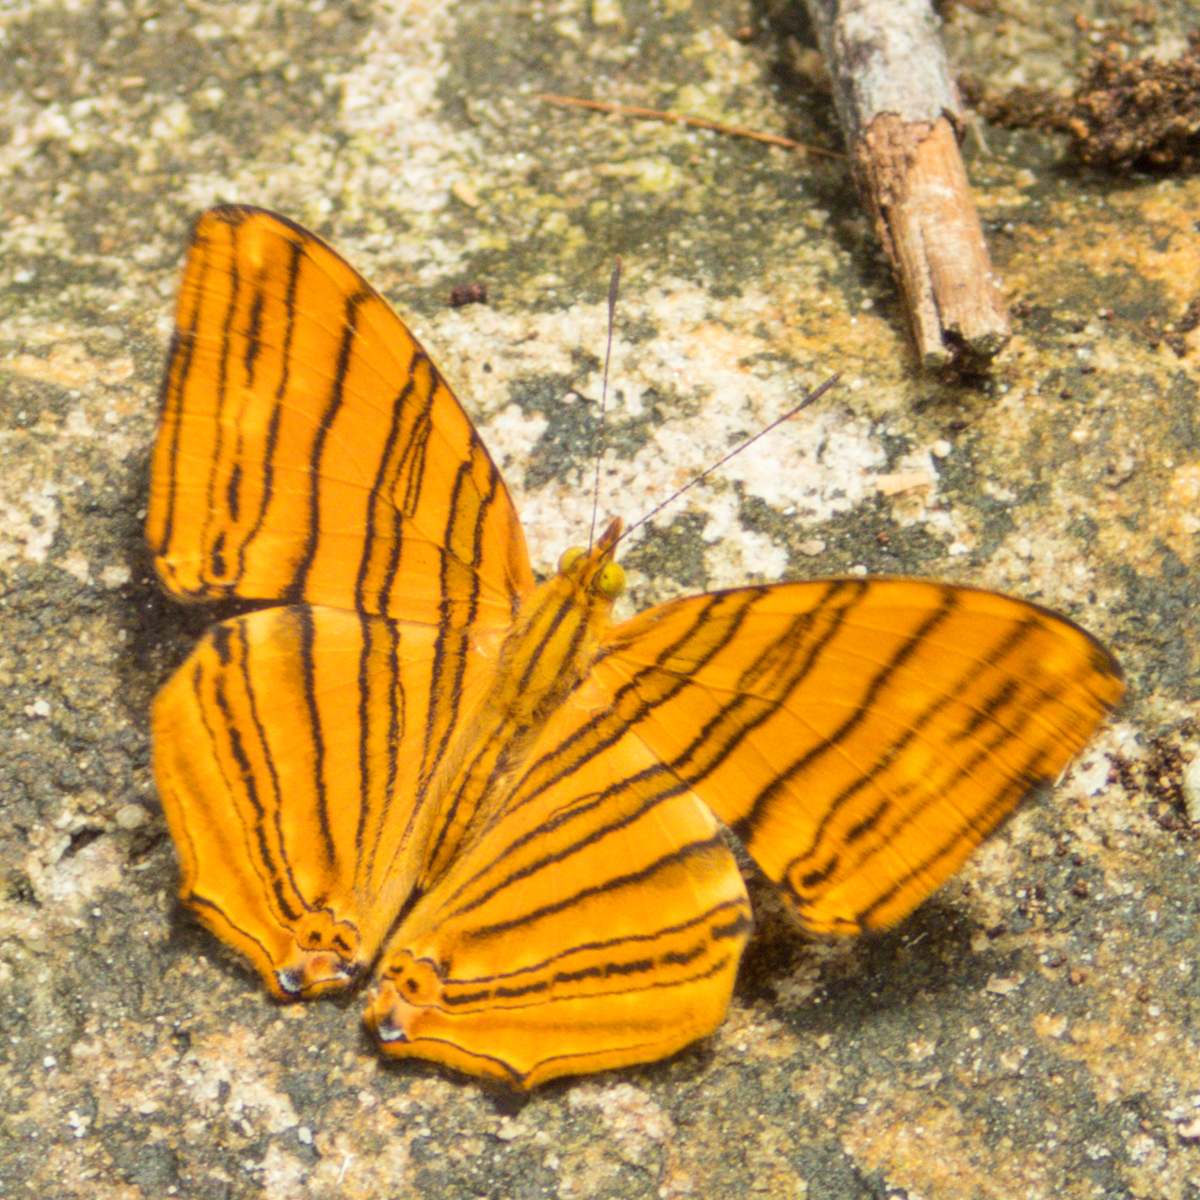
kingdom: Animalia
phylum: Arthropoda
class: Insecta
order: Lepidoptera
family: Nymphalidae
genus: Chersonesia
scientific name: Chersonesia risa
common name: Common maplet
